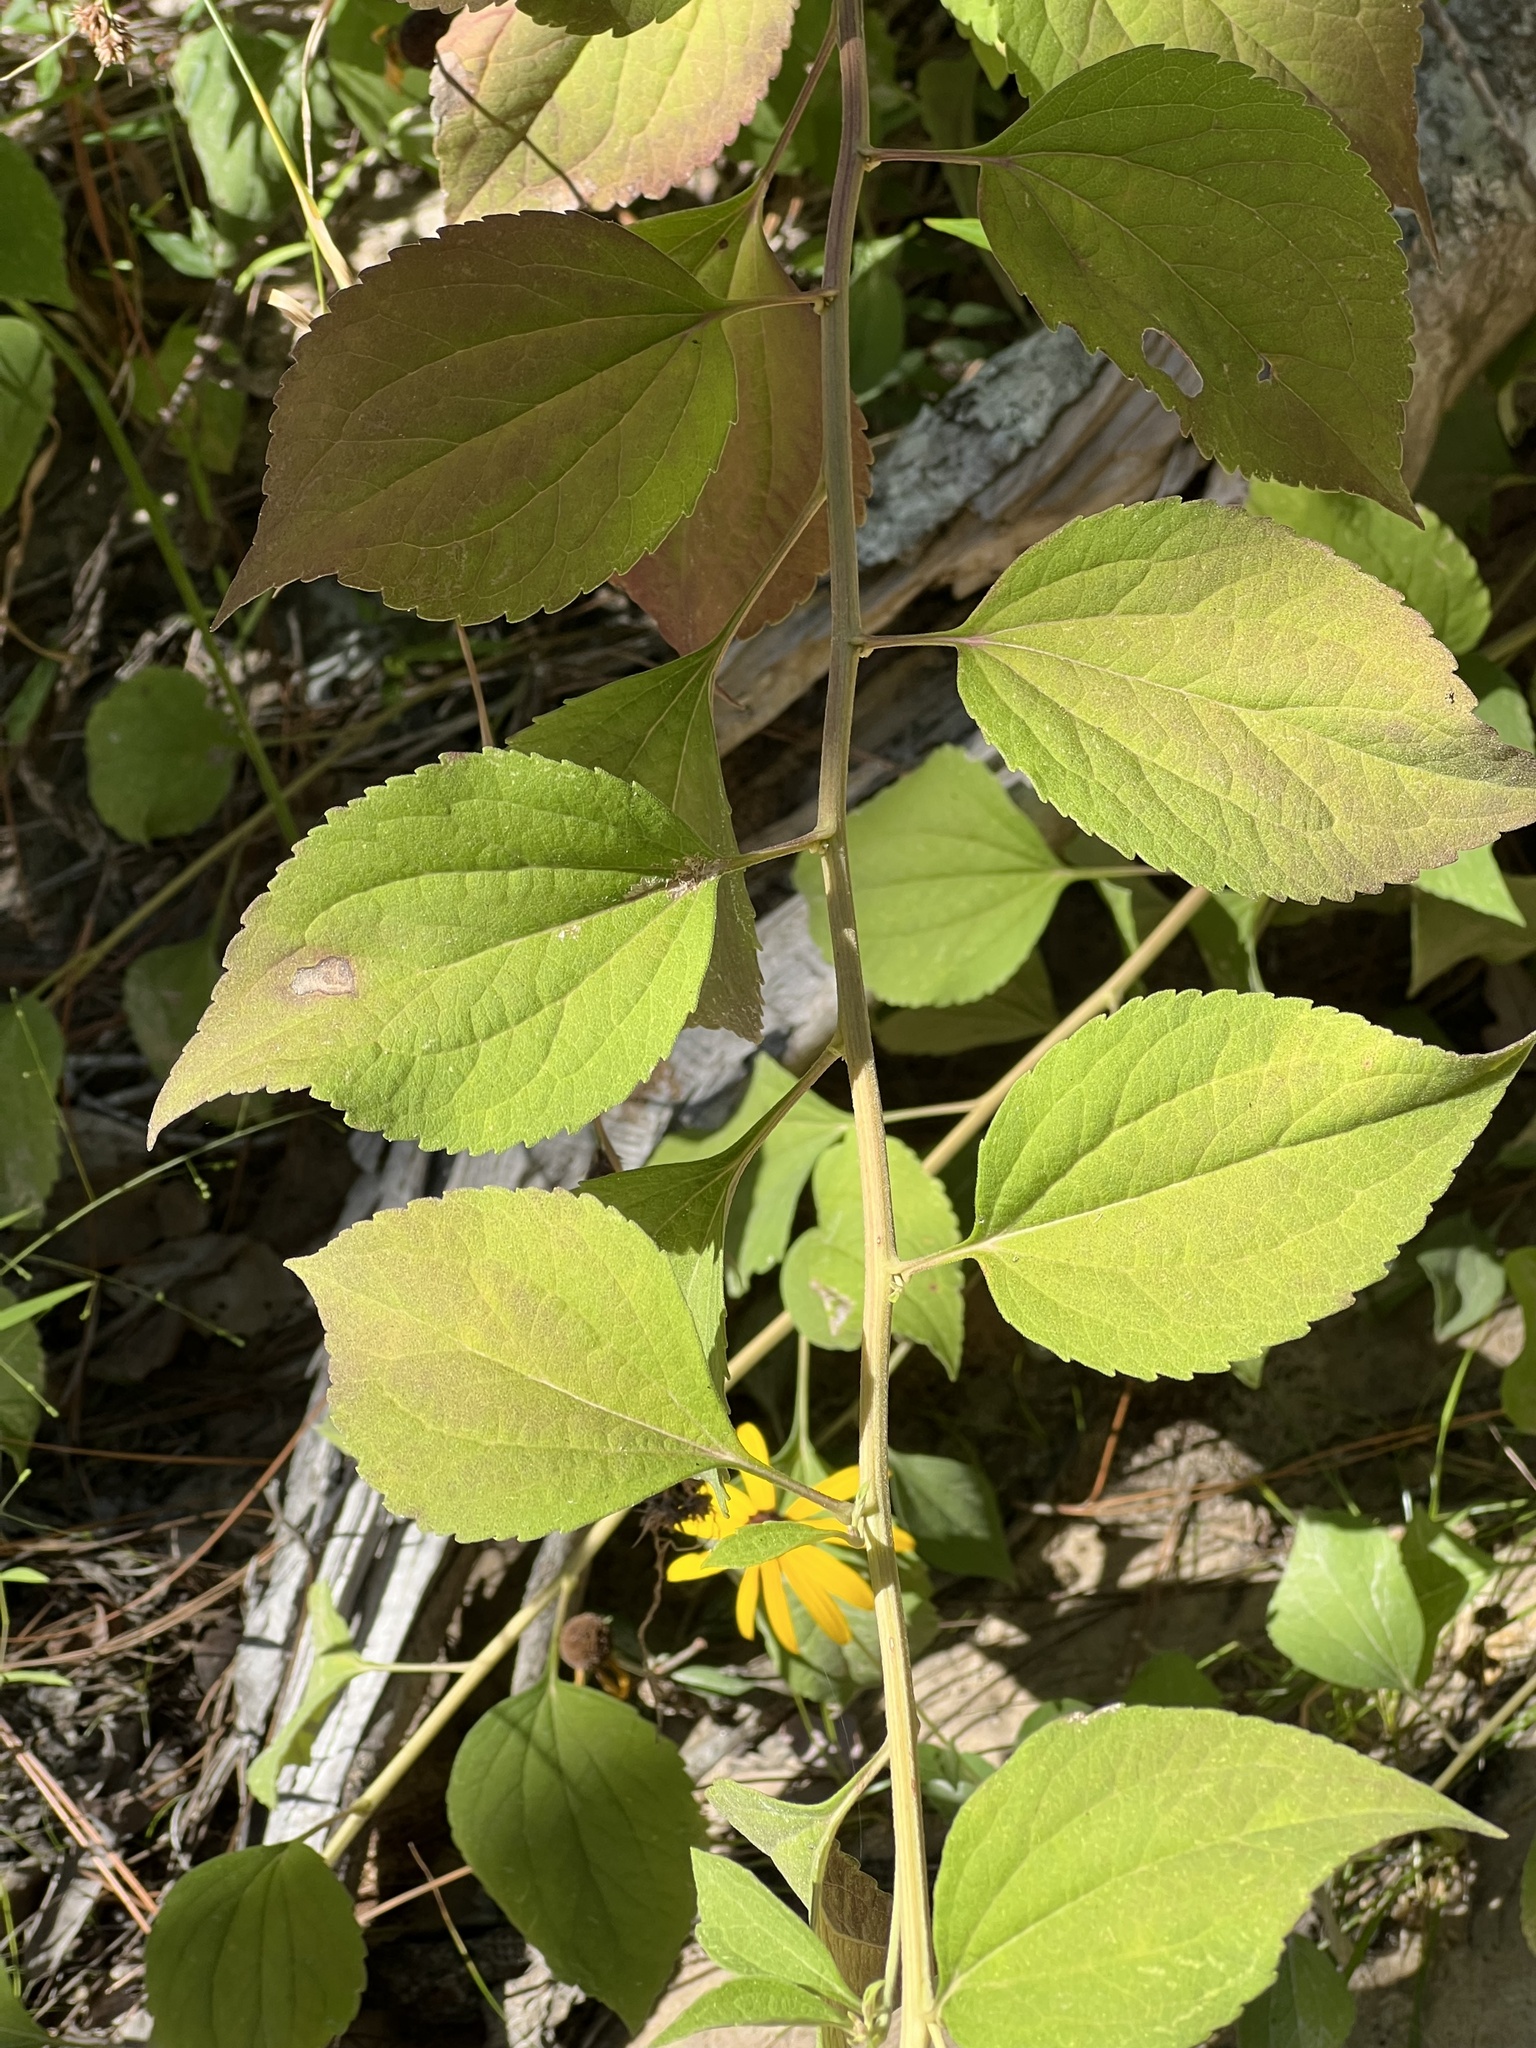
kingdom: Plantae
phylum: Tracheophyta
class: Magnoliopsida
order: Asterales
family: Asteraceae
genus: Rudbeckia
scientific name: Rudbeckia subtomentosa
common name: Sweet coneflower
